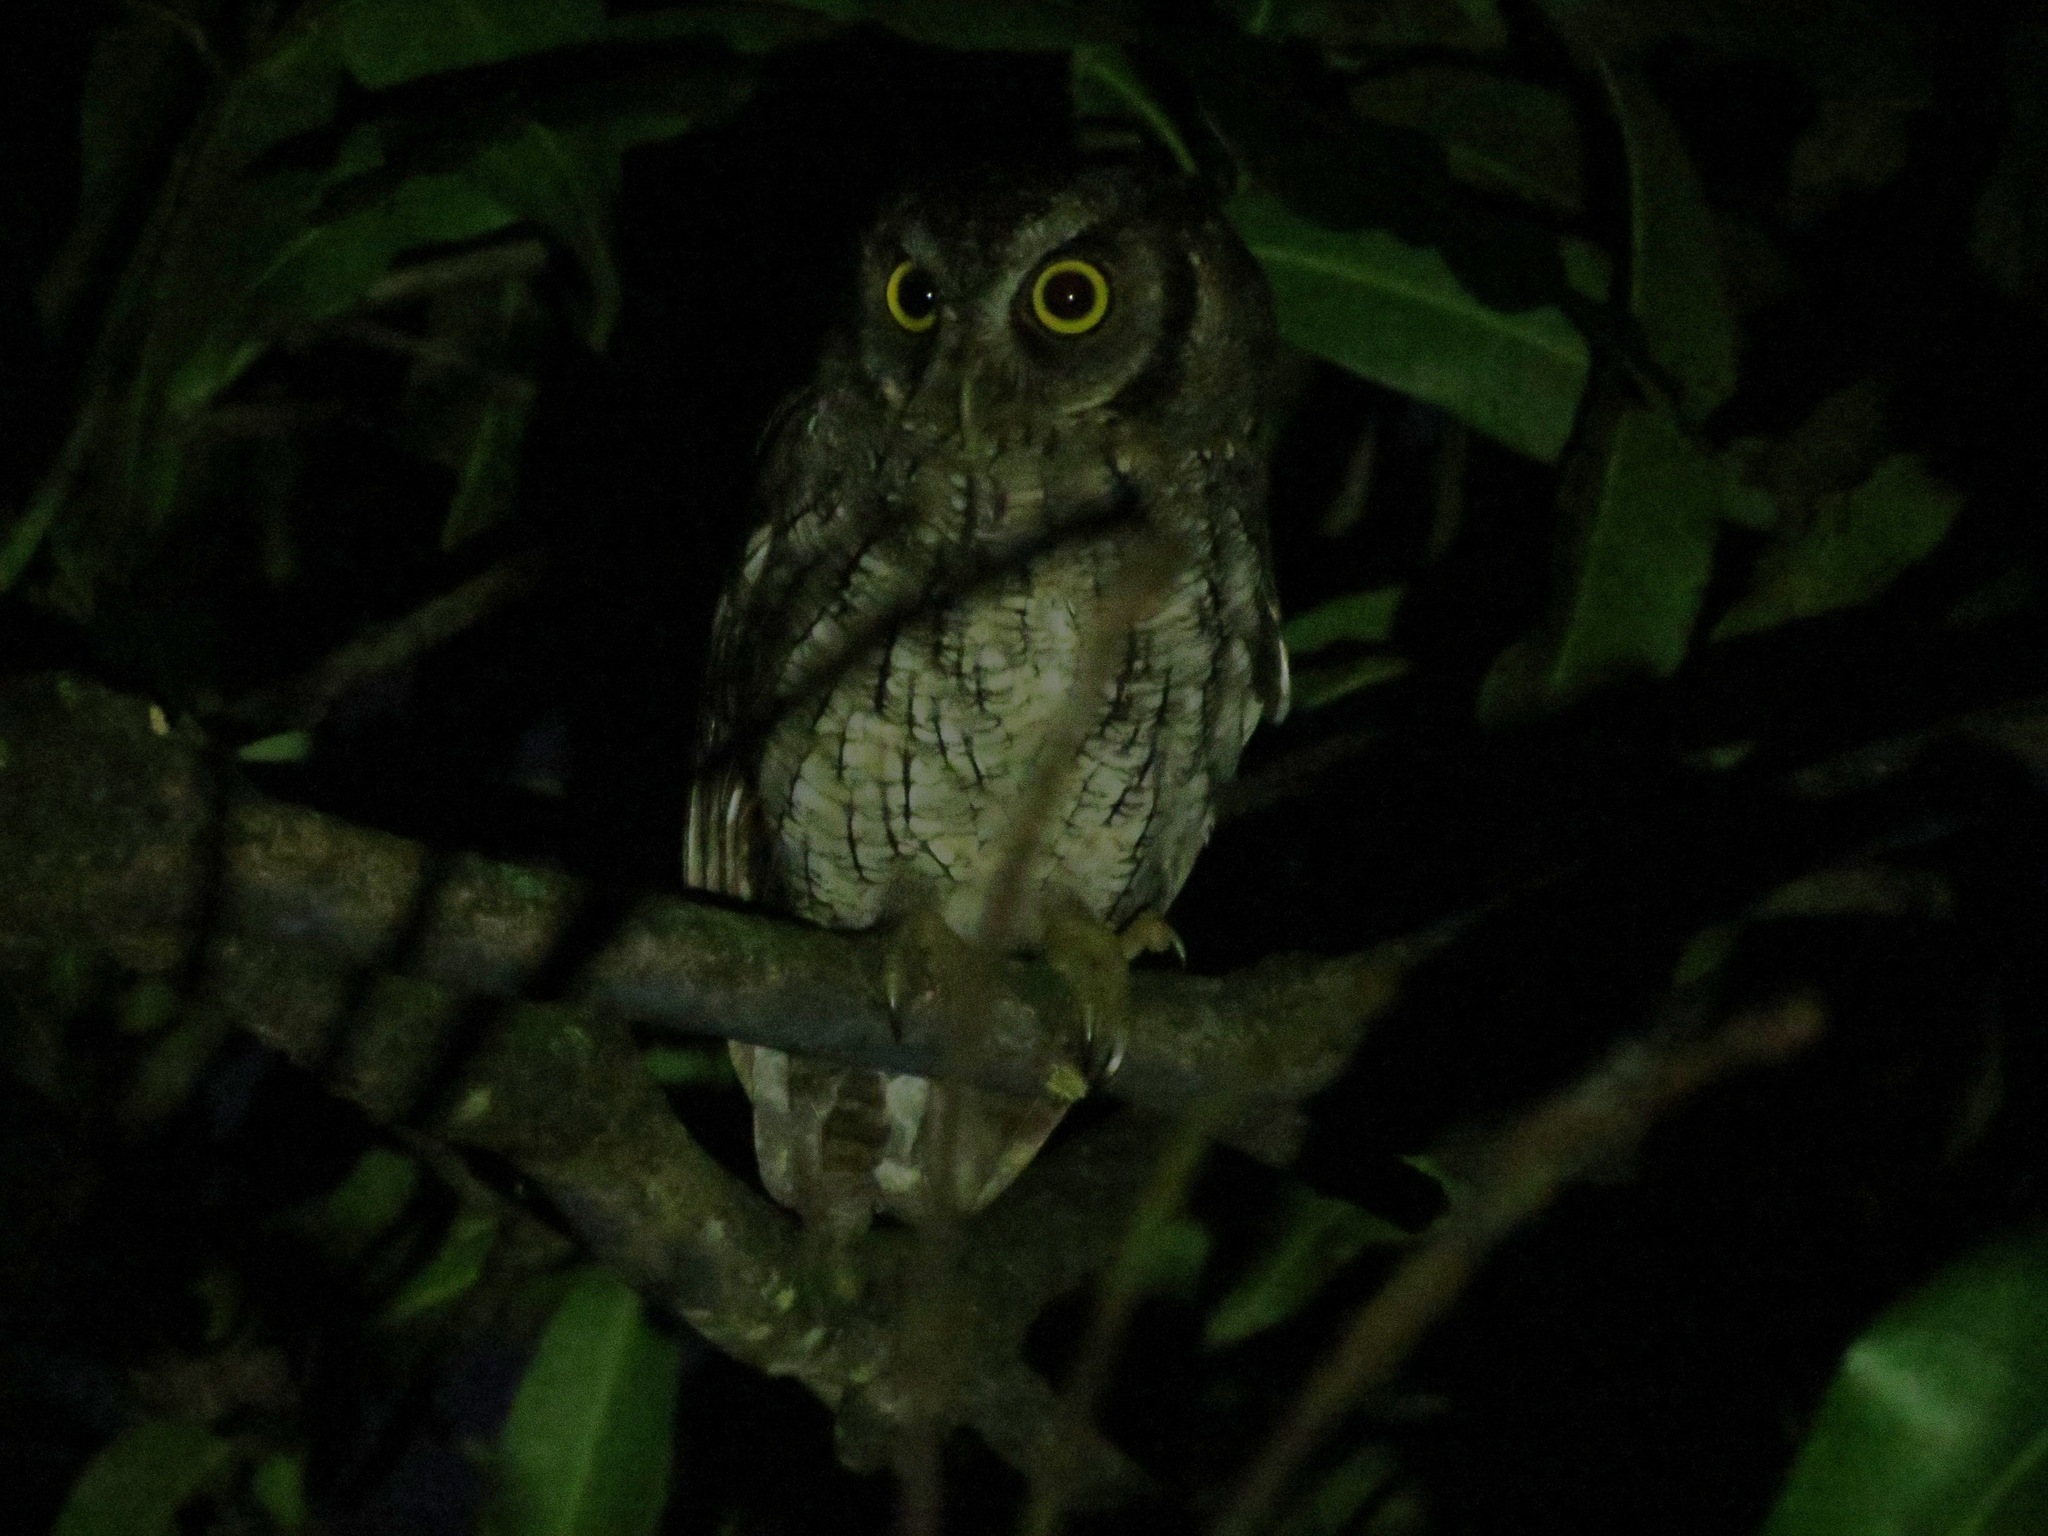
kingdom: Animalia
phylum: Chordata
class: Aves
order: Strigiformes
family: Strigidae
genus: Megascops
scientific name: Megascops choliba
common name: Tropical screech-owl
